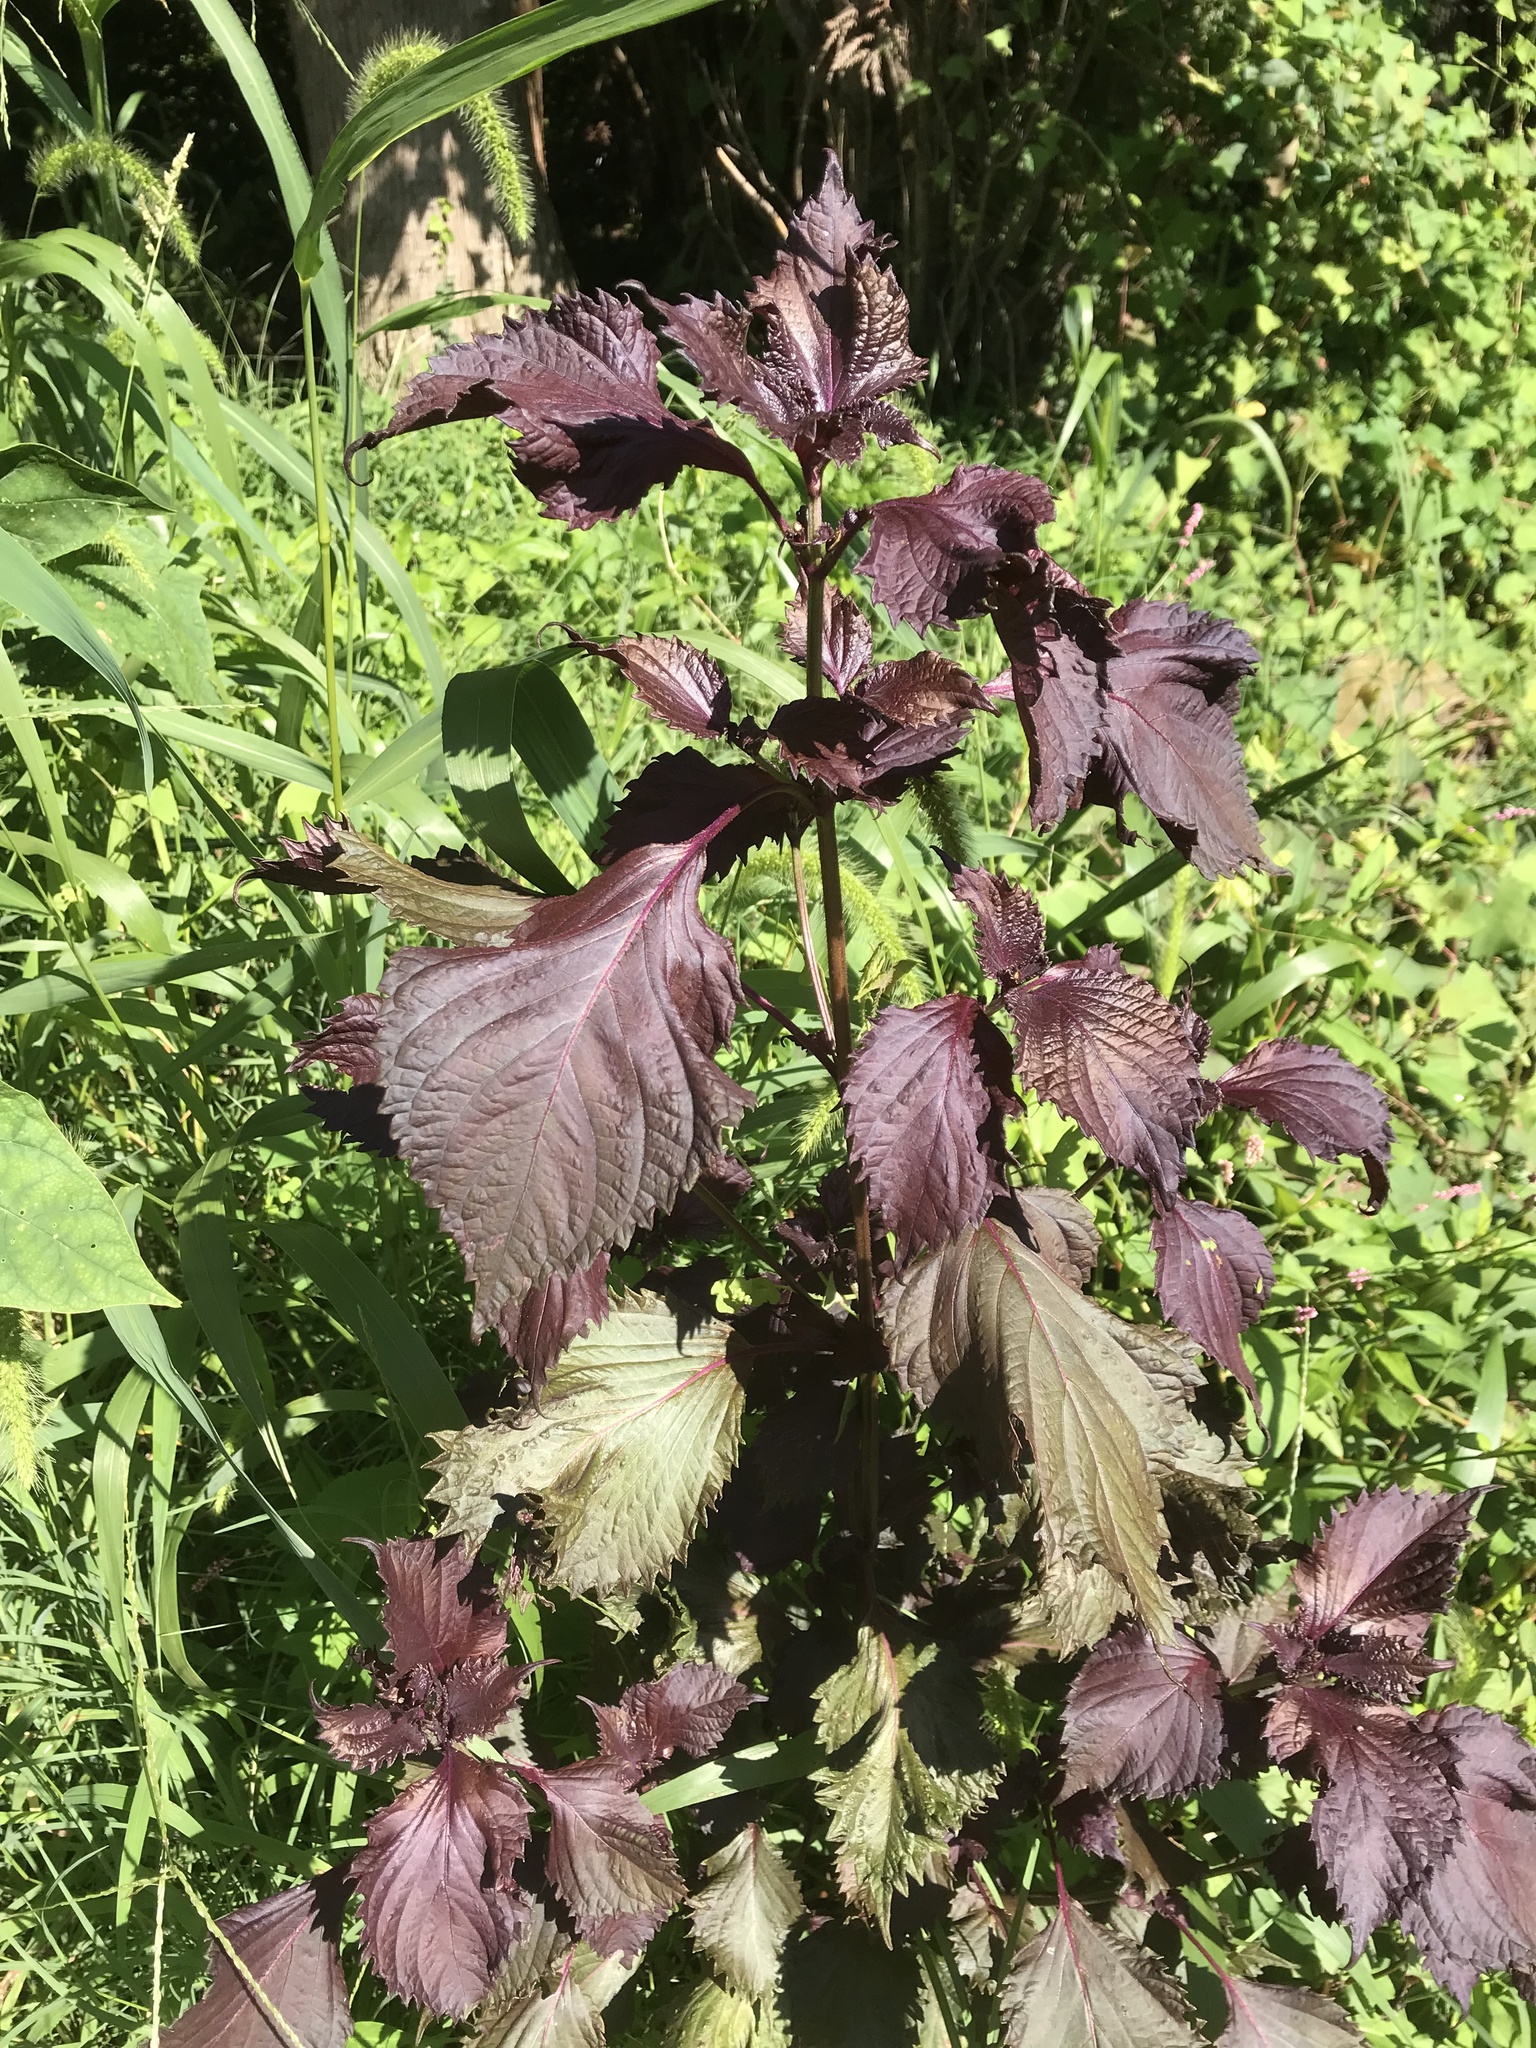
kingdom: Plantae
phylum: Tracheophyta
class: Magnoliopsida
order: Lamiales
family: Lamiaceae
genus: Perilla
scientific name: Perilla frutescens
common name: Perilla
